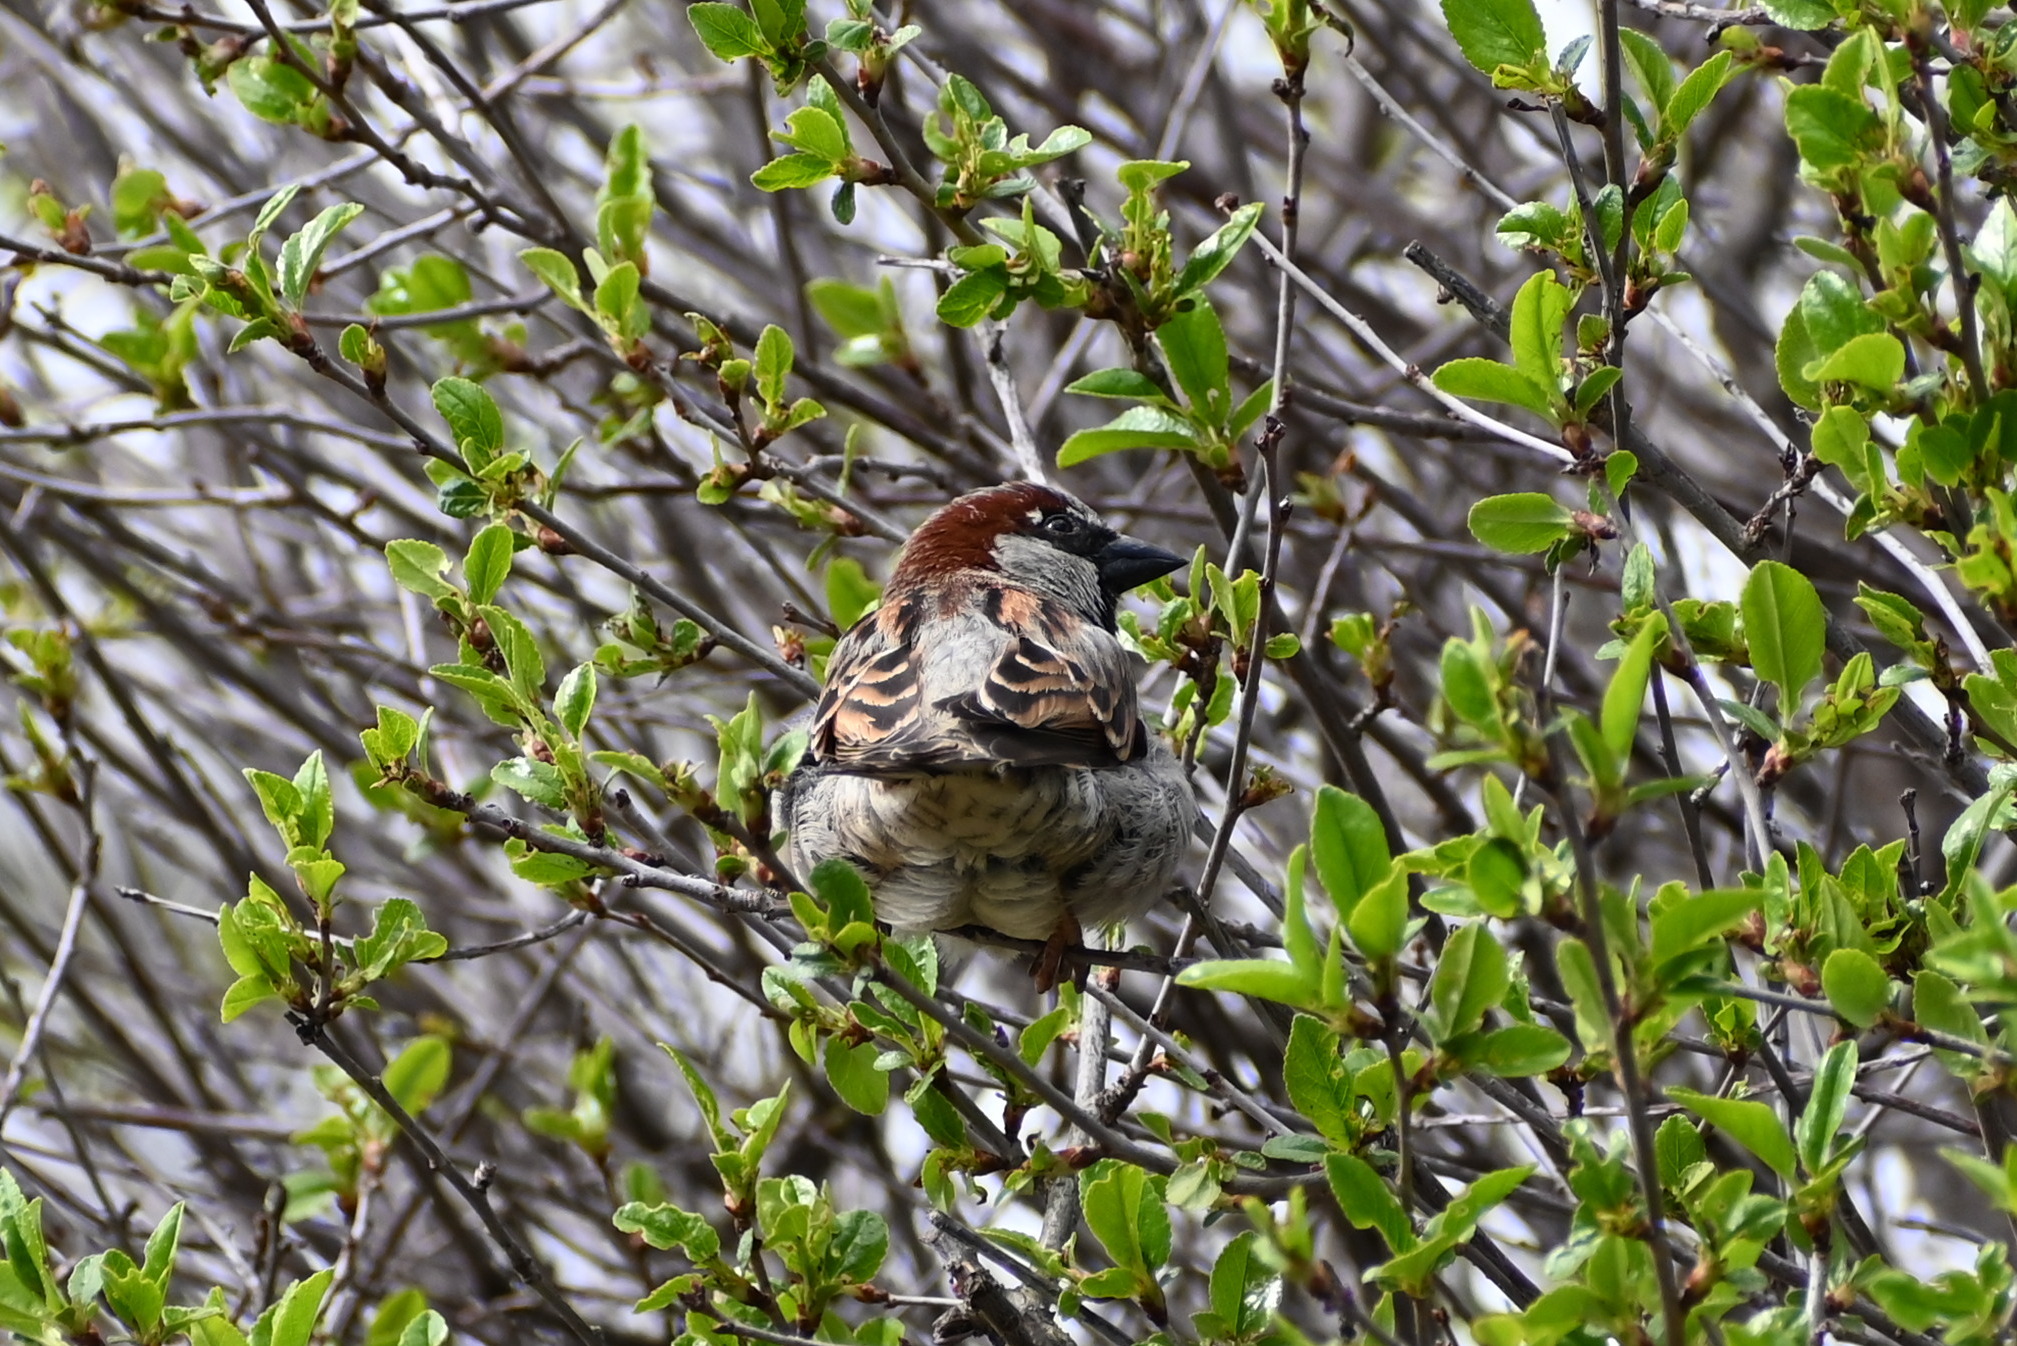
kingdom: Animalia
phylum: Chordata
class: Aves
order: Passeriformes
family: Passeridae
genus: Passer
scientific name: Passer domesticus
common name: House sparrow
